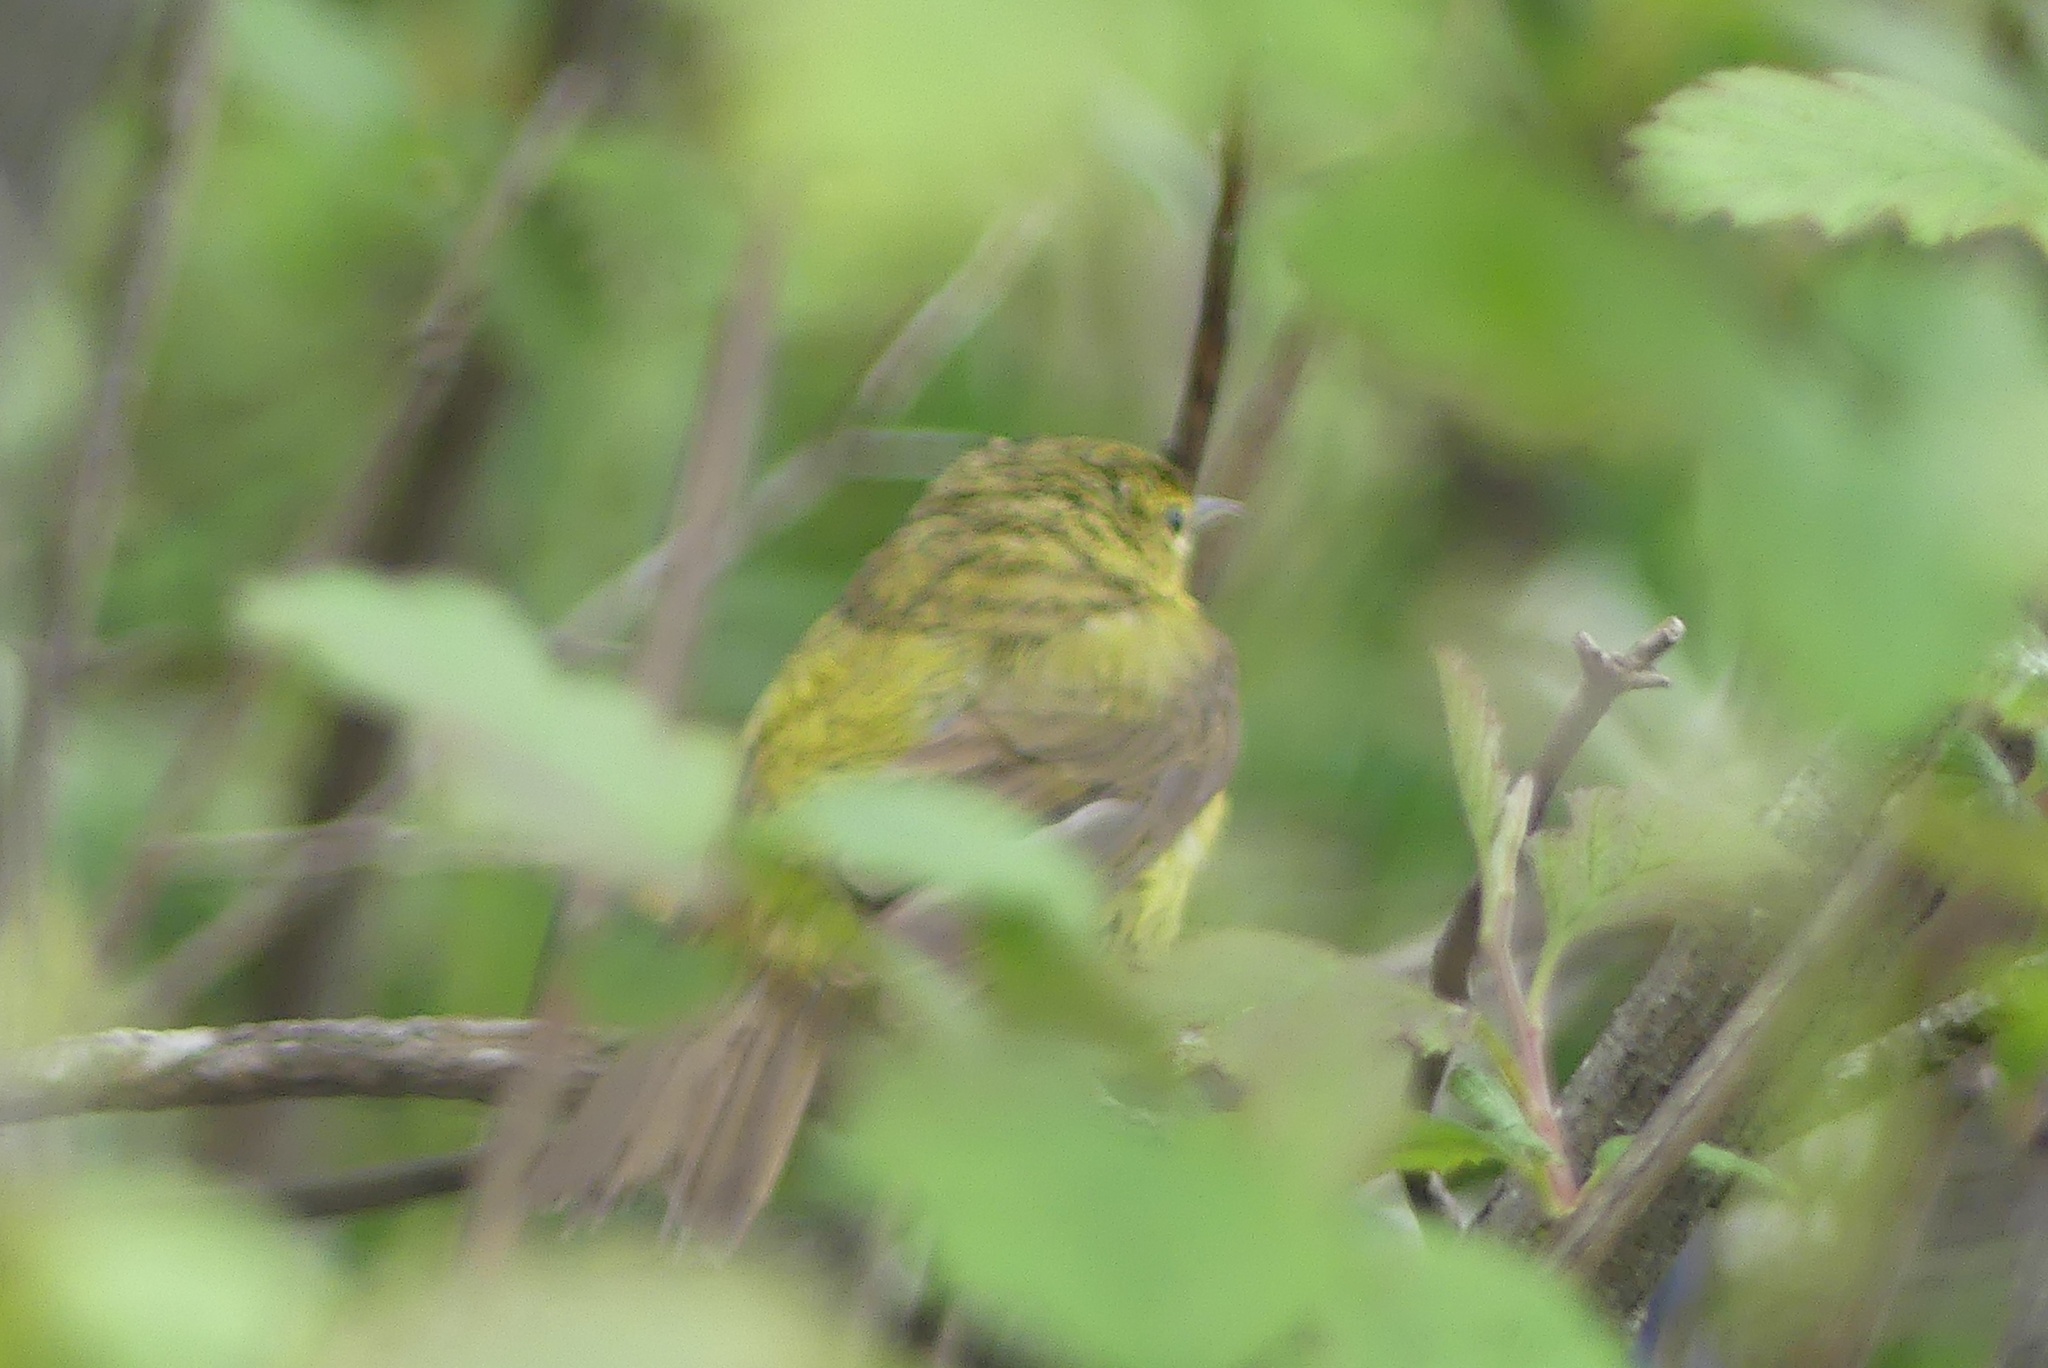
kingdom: Animalia
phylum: Chordata
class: Aves
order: Passeriformes
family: Parulidae
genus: Leiothlypis
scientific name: Leiothlypis celata
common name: Orange-crowned warbler
